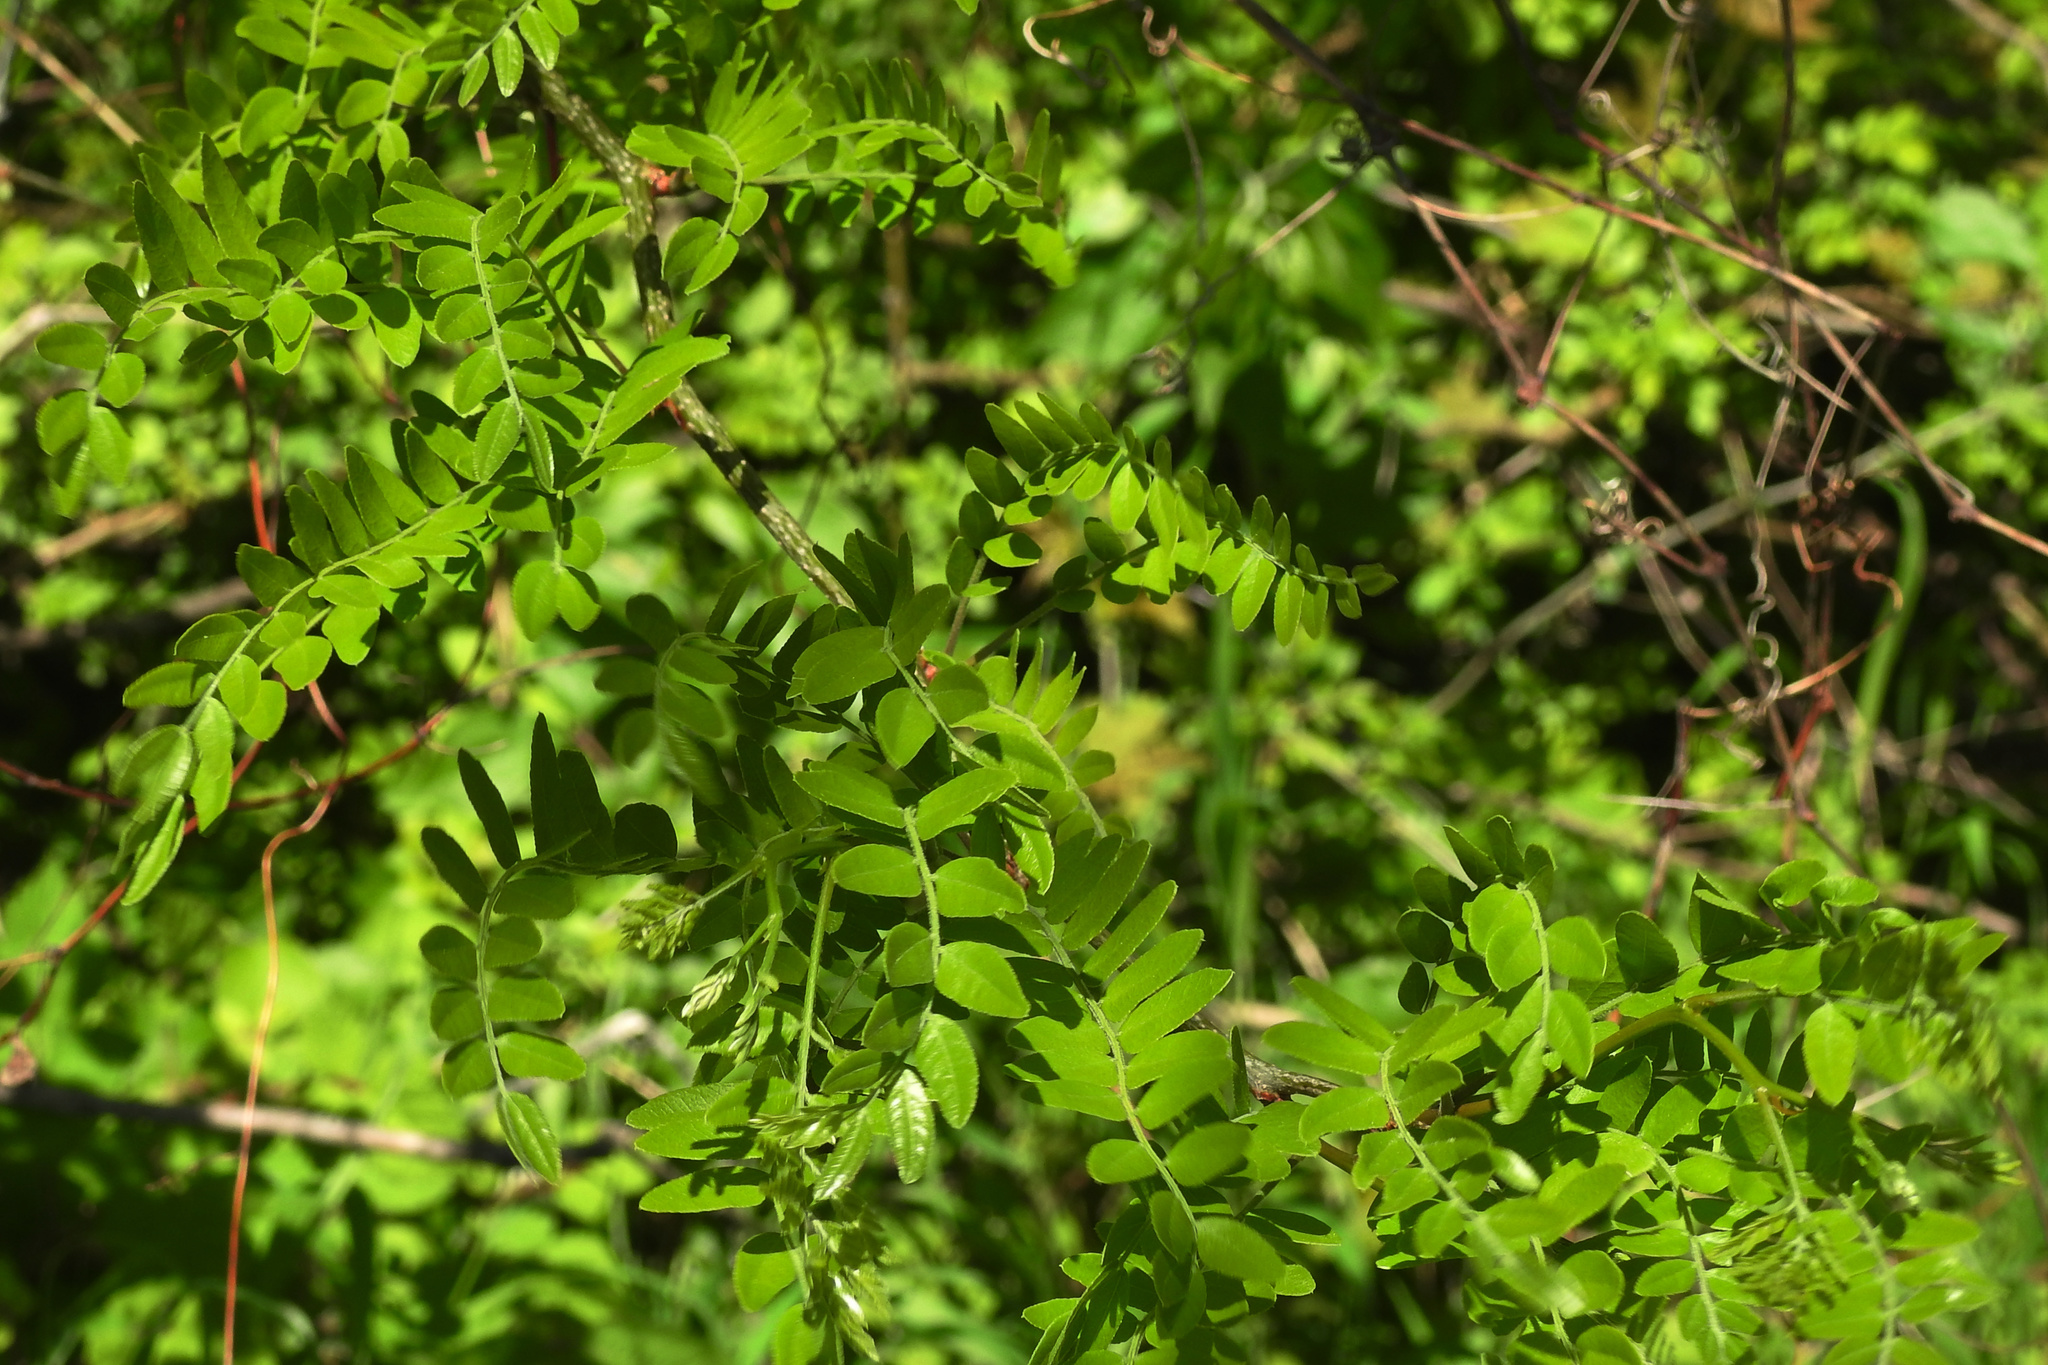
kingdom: Plantae
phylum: Tracheophyta
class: Magnoliopsida
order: Fabales
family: Fabaceae
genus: Gleditsia
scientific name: Gleditsia triacanthos
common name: Common honeylocust
